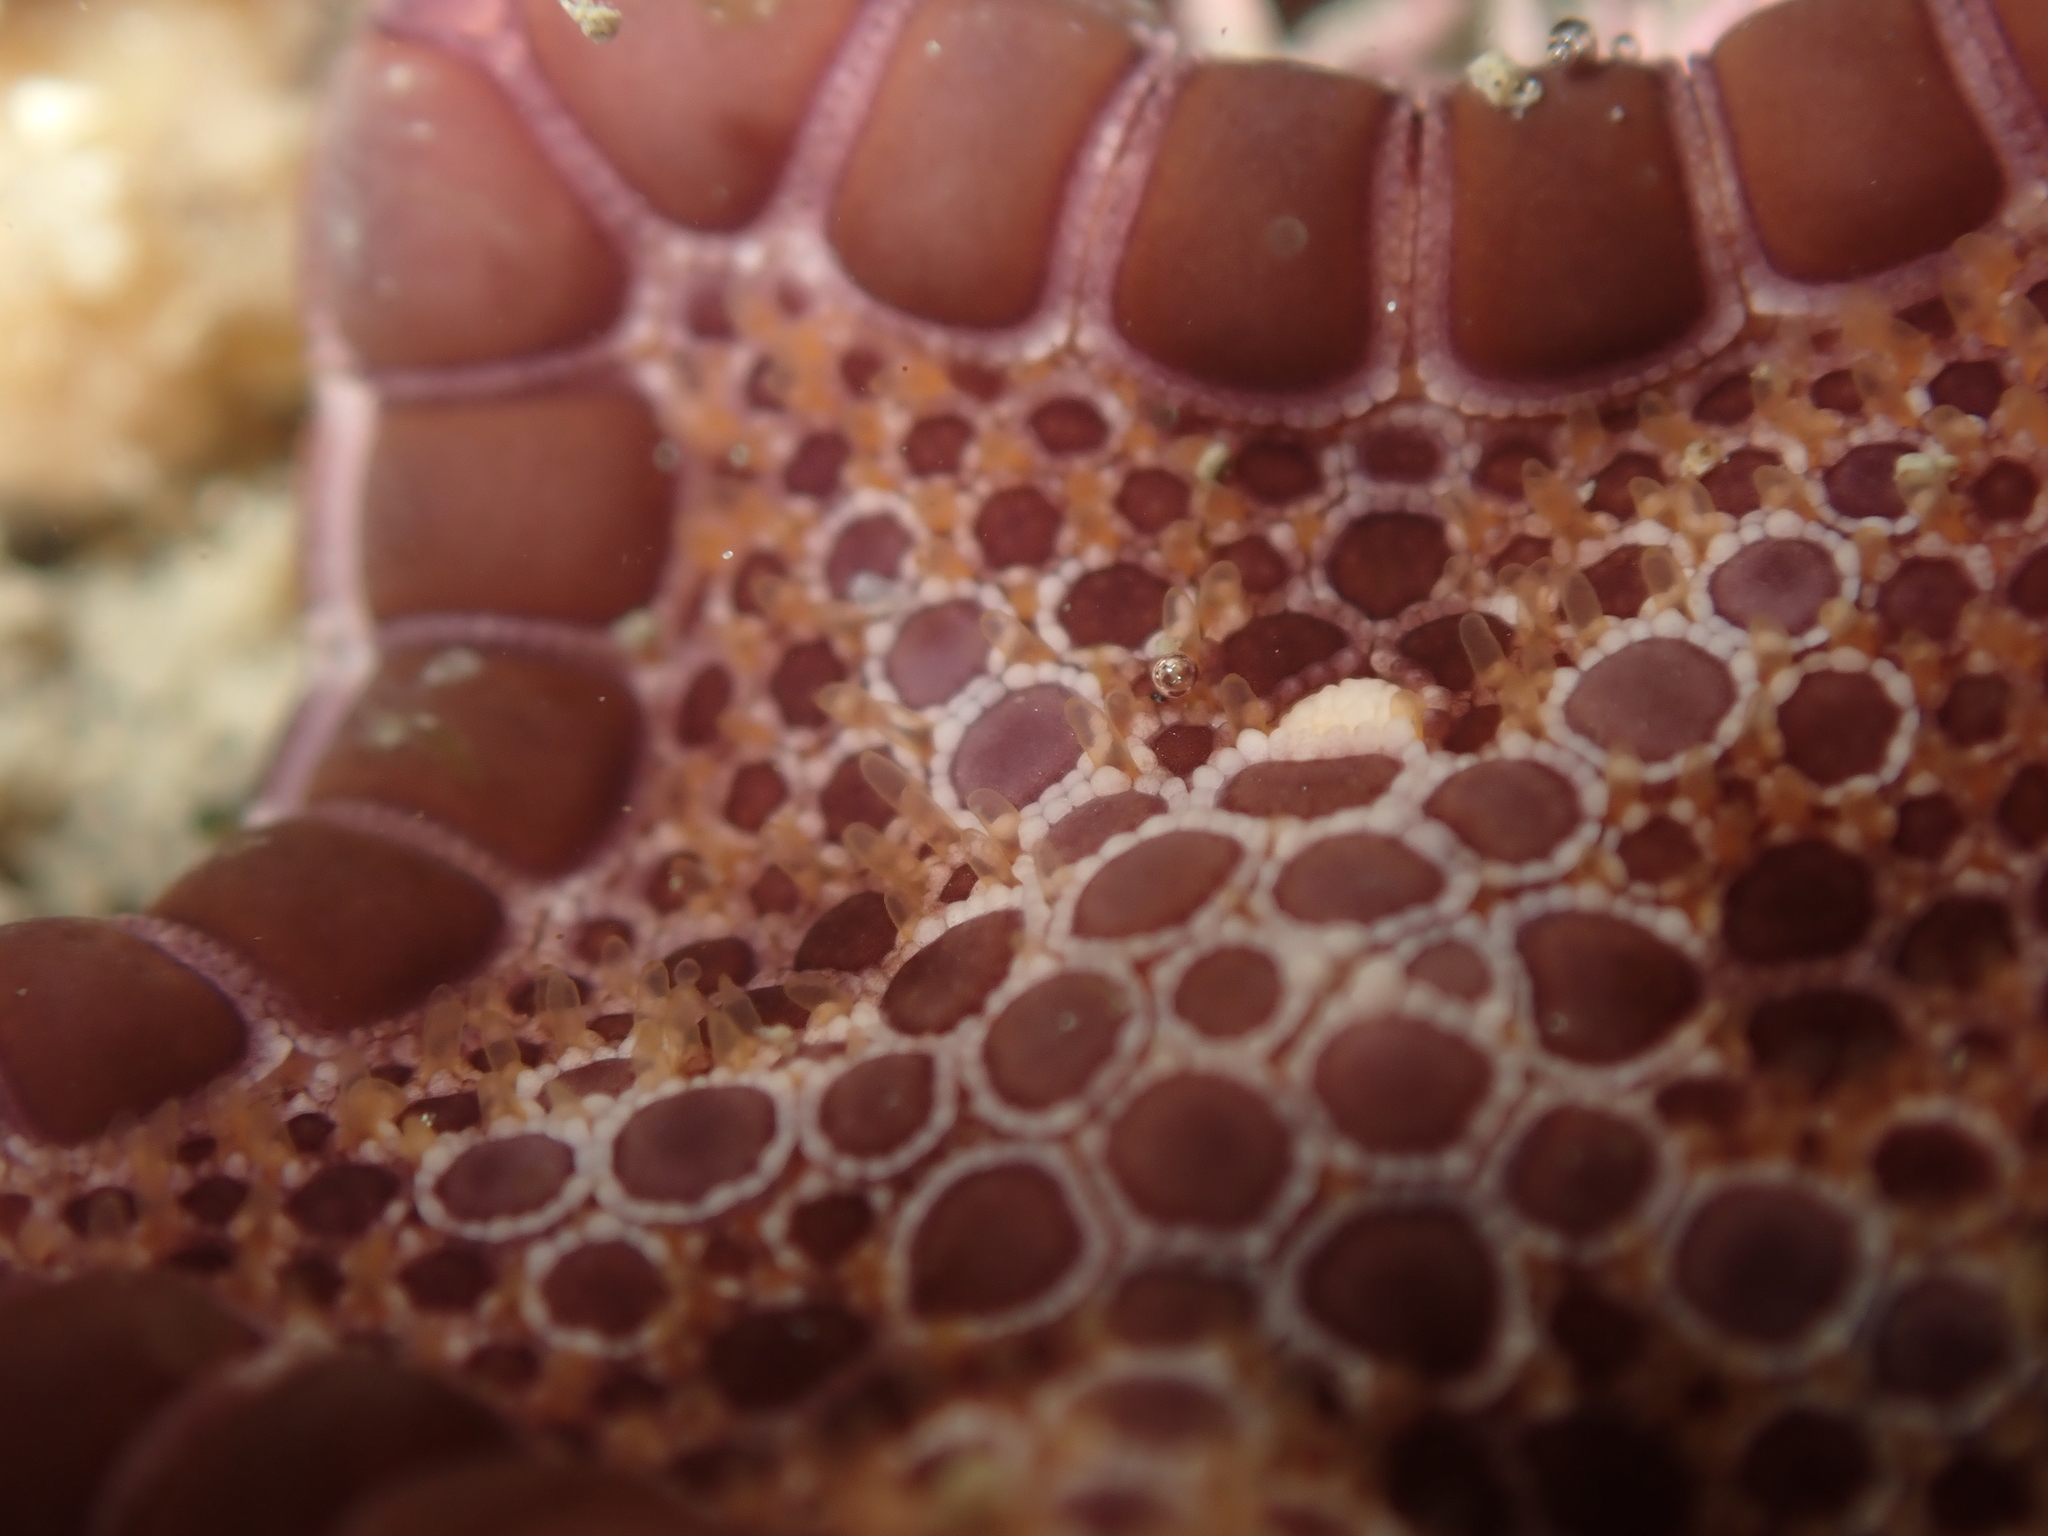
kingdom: Animalia
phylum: Echinodermata
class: Asteroidea
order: Valvatida
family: Goniasteridae
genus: Pentagonaster
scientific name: Pentagonaster pulchellus
